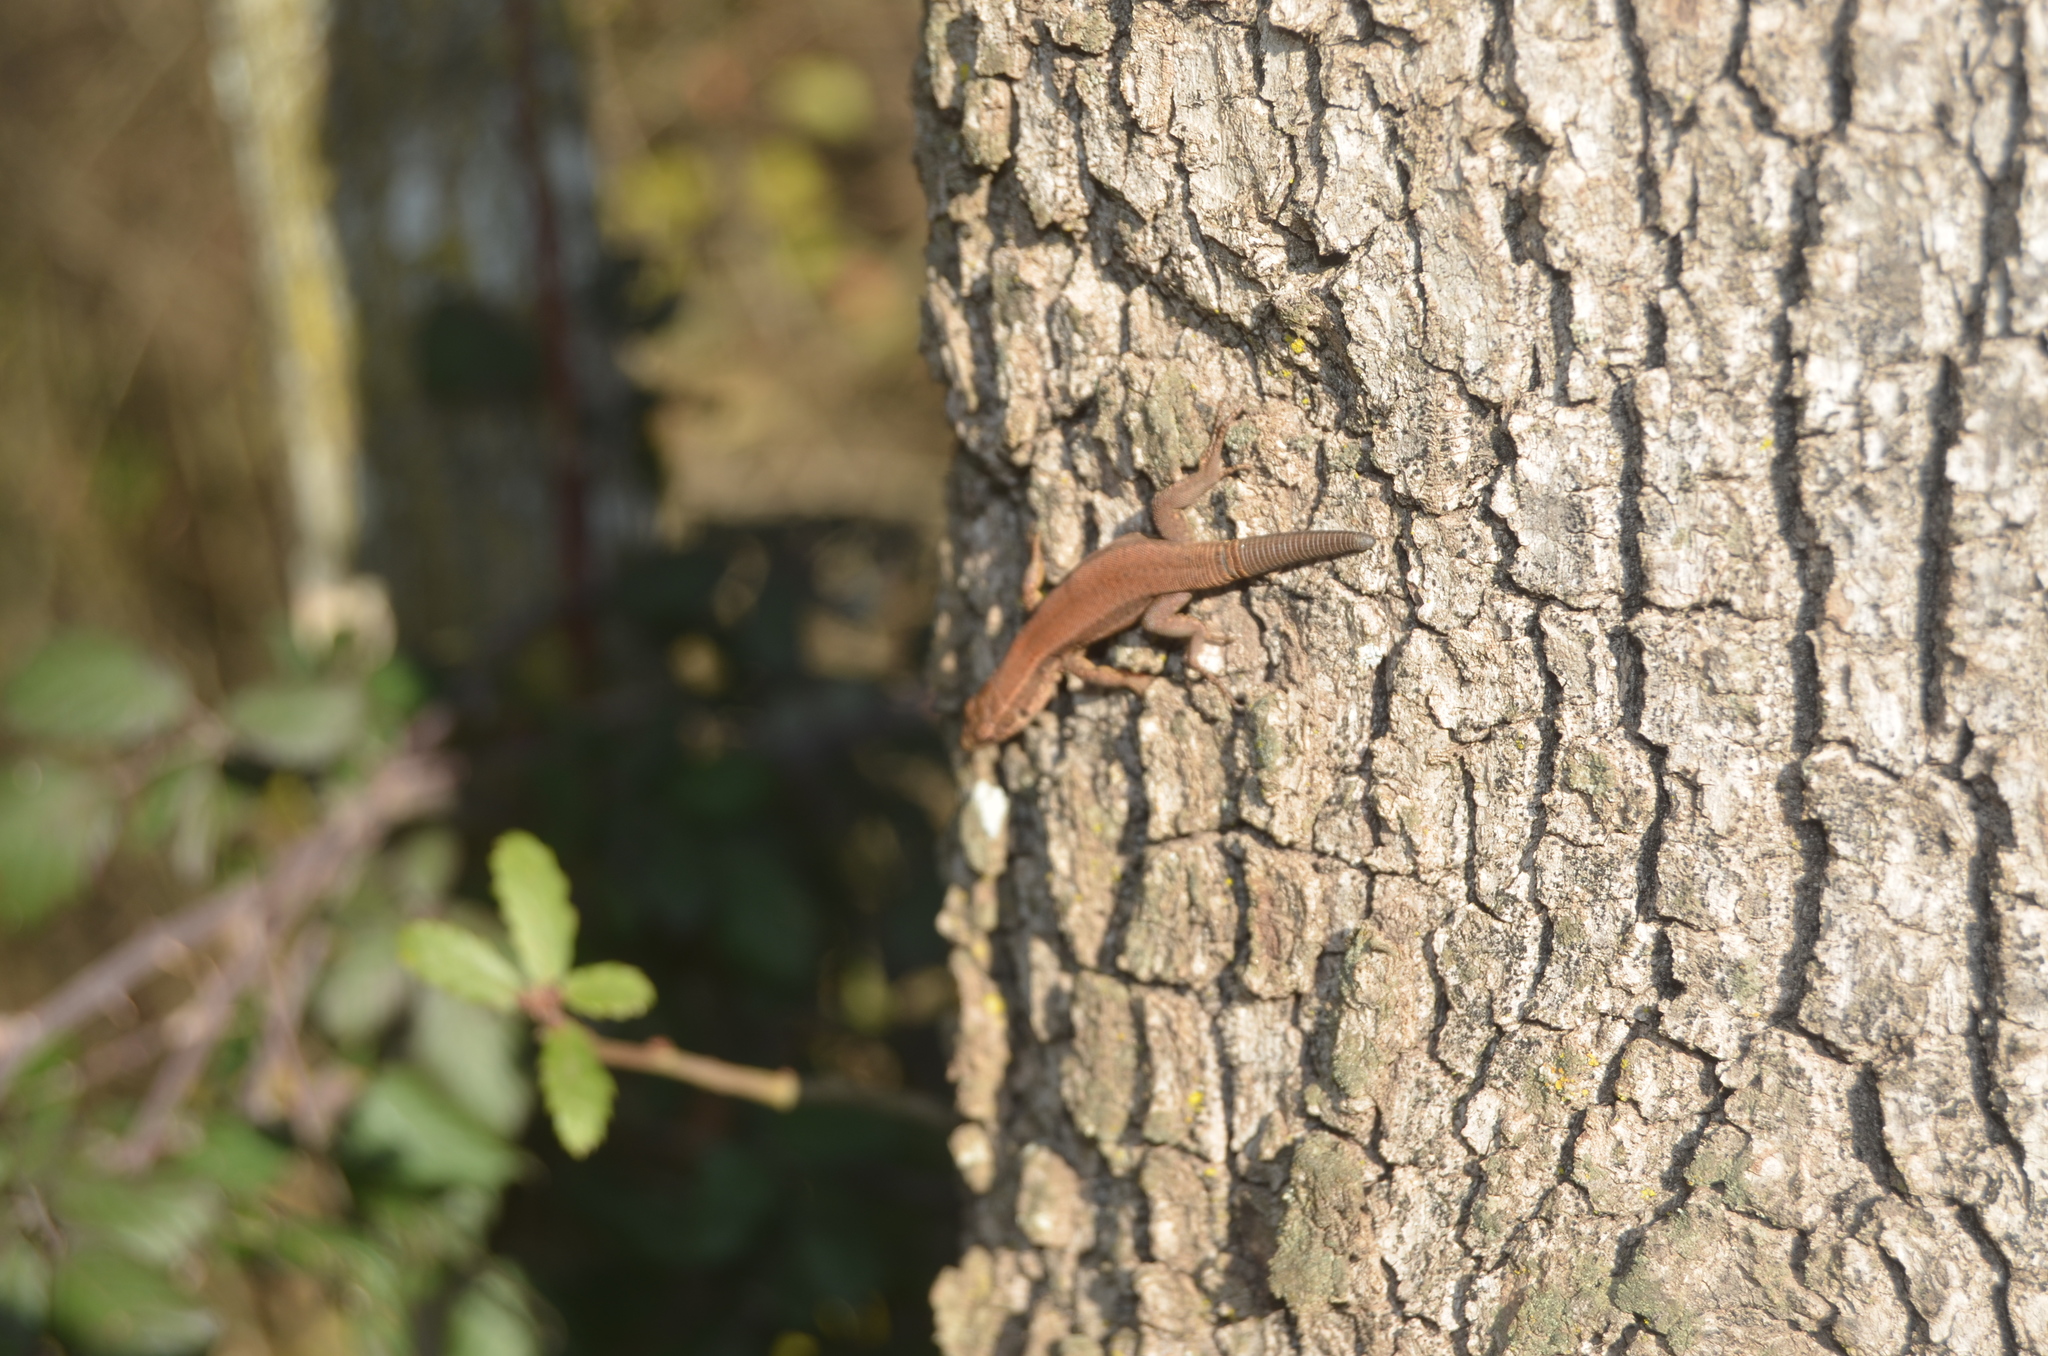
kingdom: Animalia
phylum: Chordata
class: Squamata
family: Lacertidae
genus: Podarcis
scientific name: Podarcis muralis
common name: Common wall lizard
